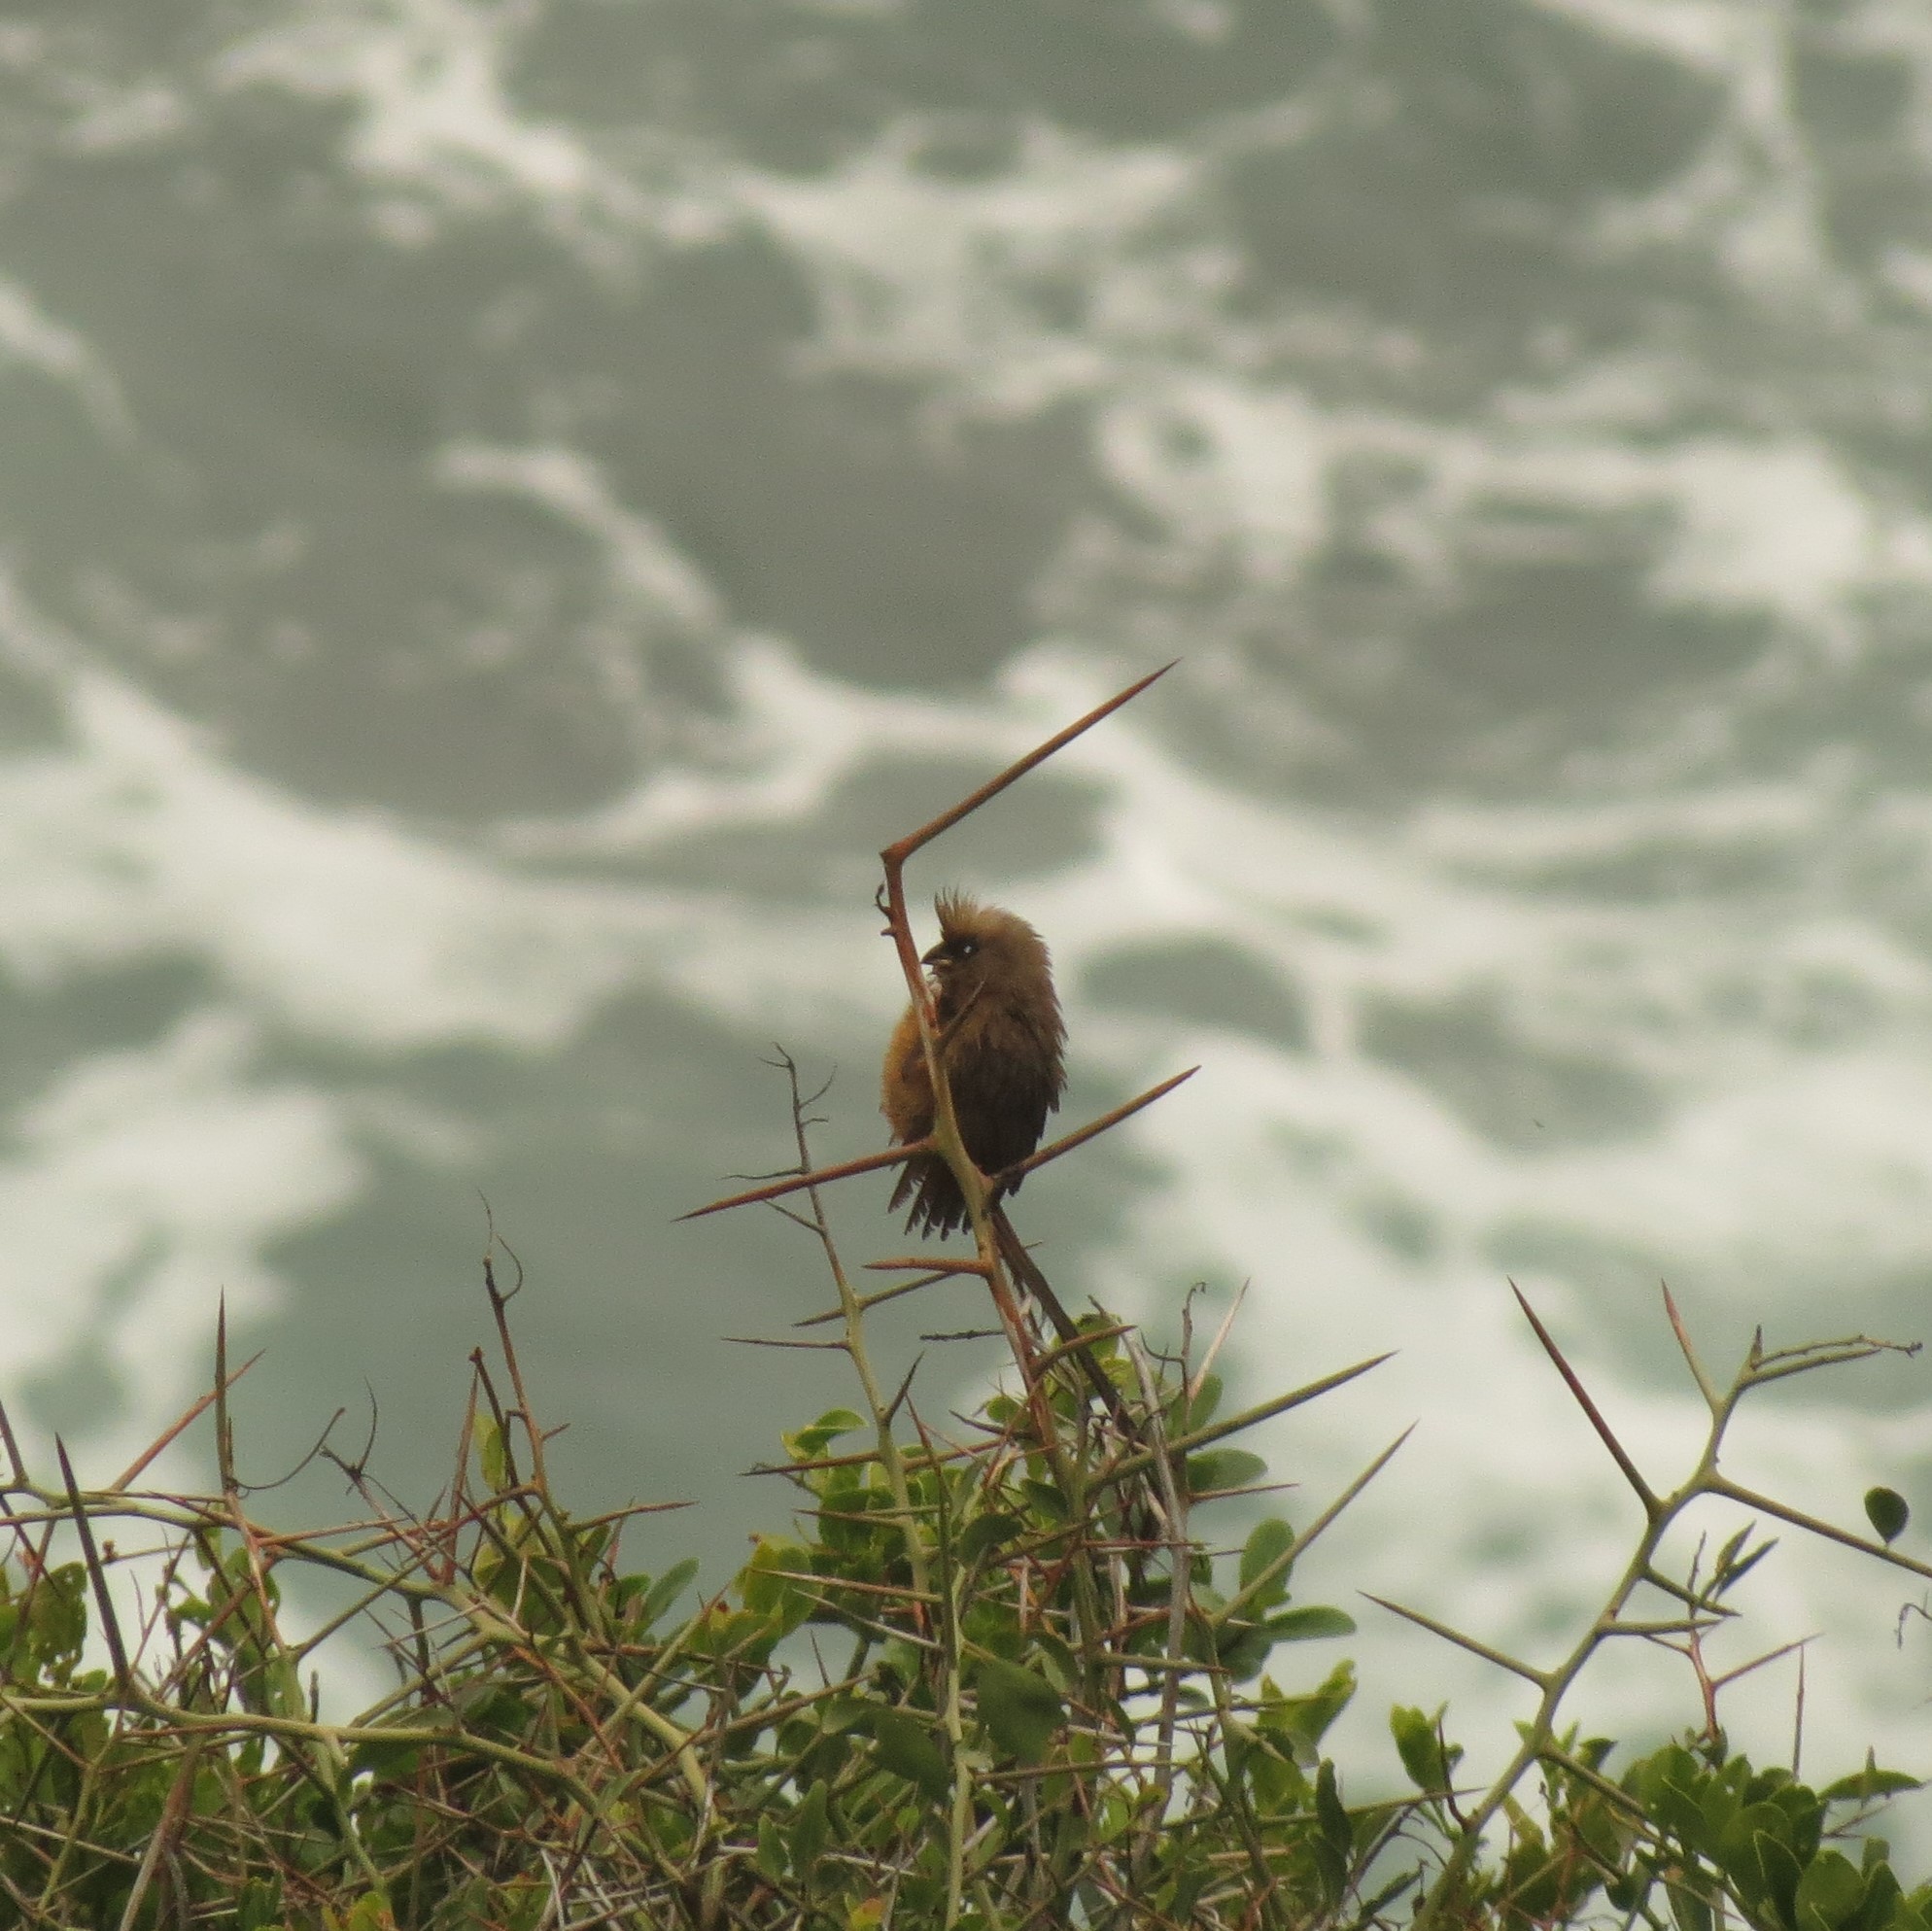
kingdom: Animalia
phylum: Chordata
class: Aves
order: Coliiformes
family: Coliidae
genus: Colius
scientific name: Colius striatus
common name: Speckled mousebird
